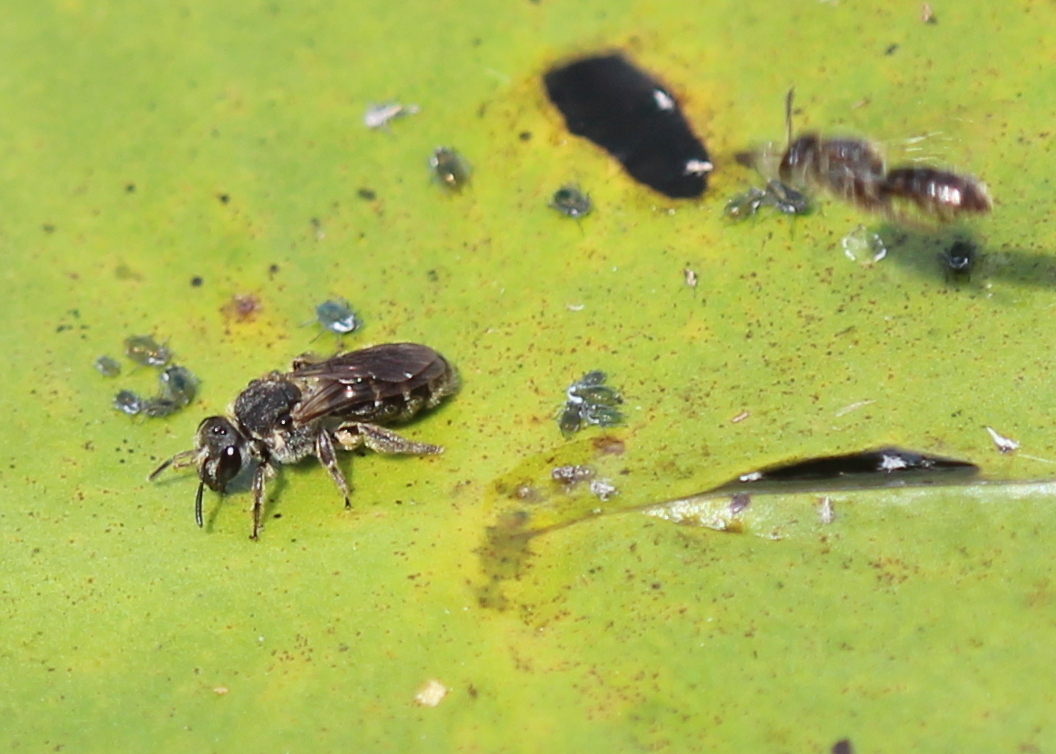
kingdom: Animalia
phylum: Arthropoda
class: Insecta
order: Hymenoptera
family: Halictidae
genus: Lasioglossum
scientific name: Lasioglossum nelumbonis
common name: Water-lily sweat bee
